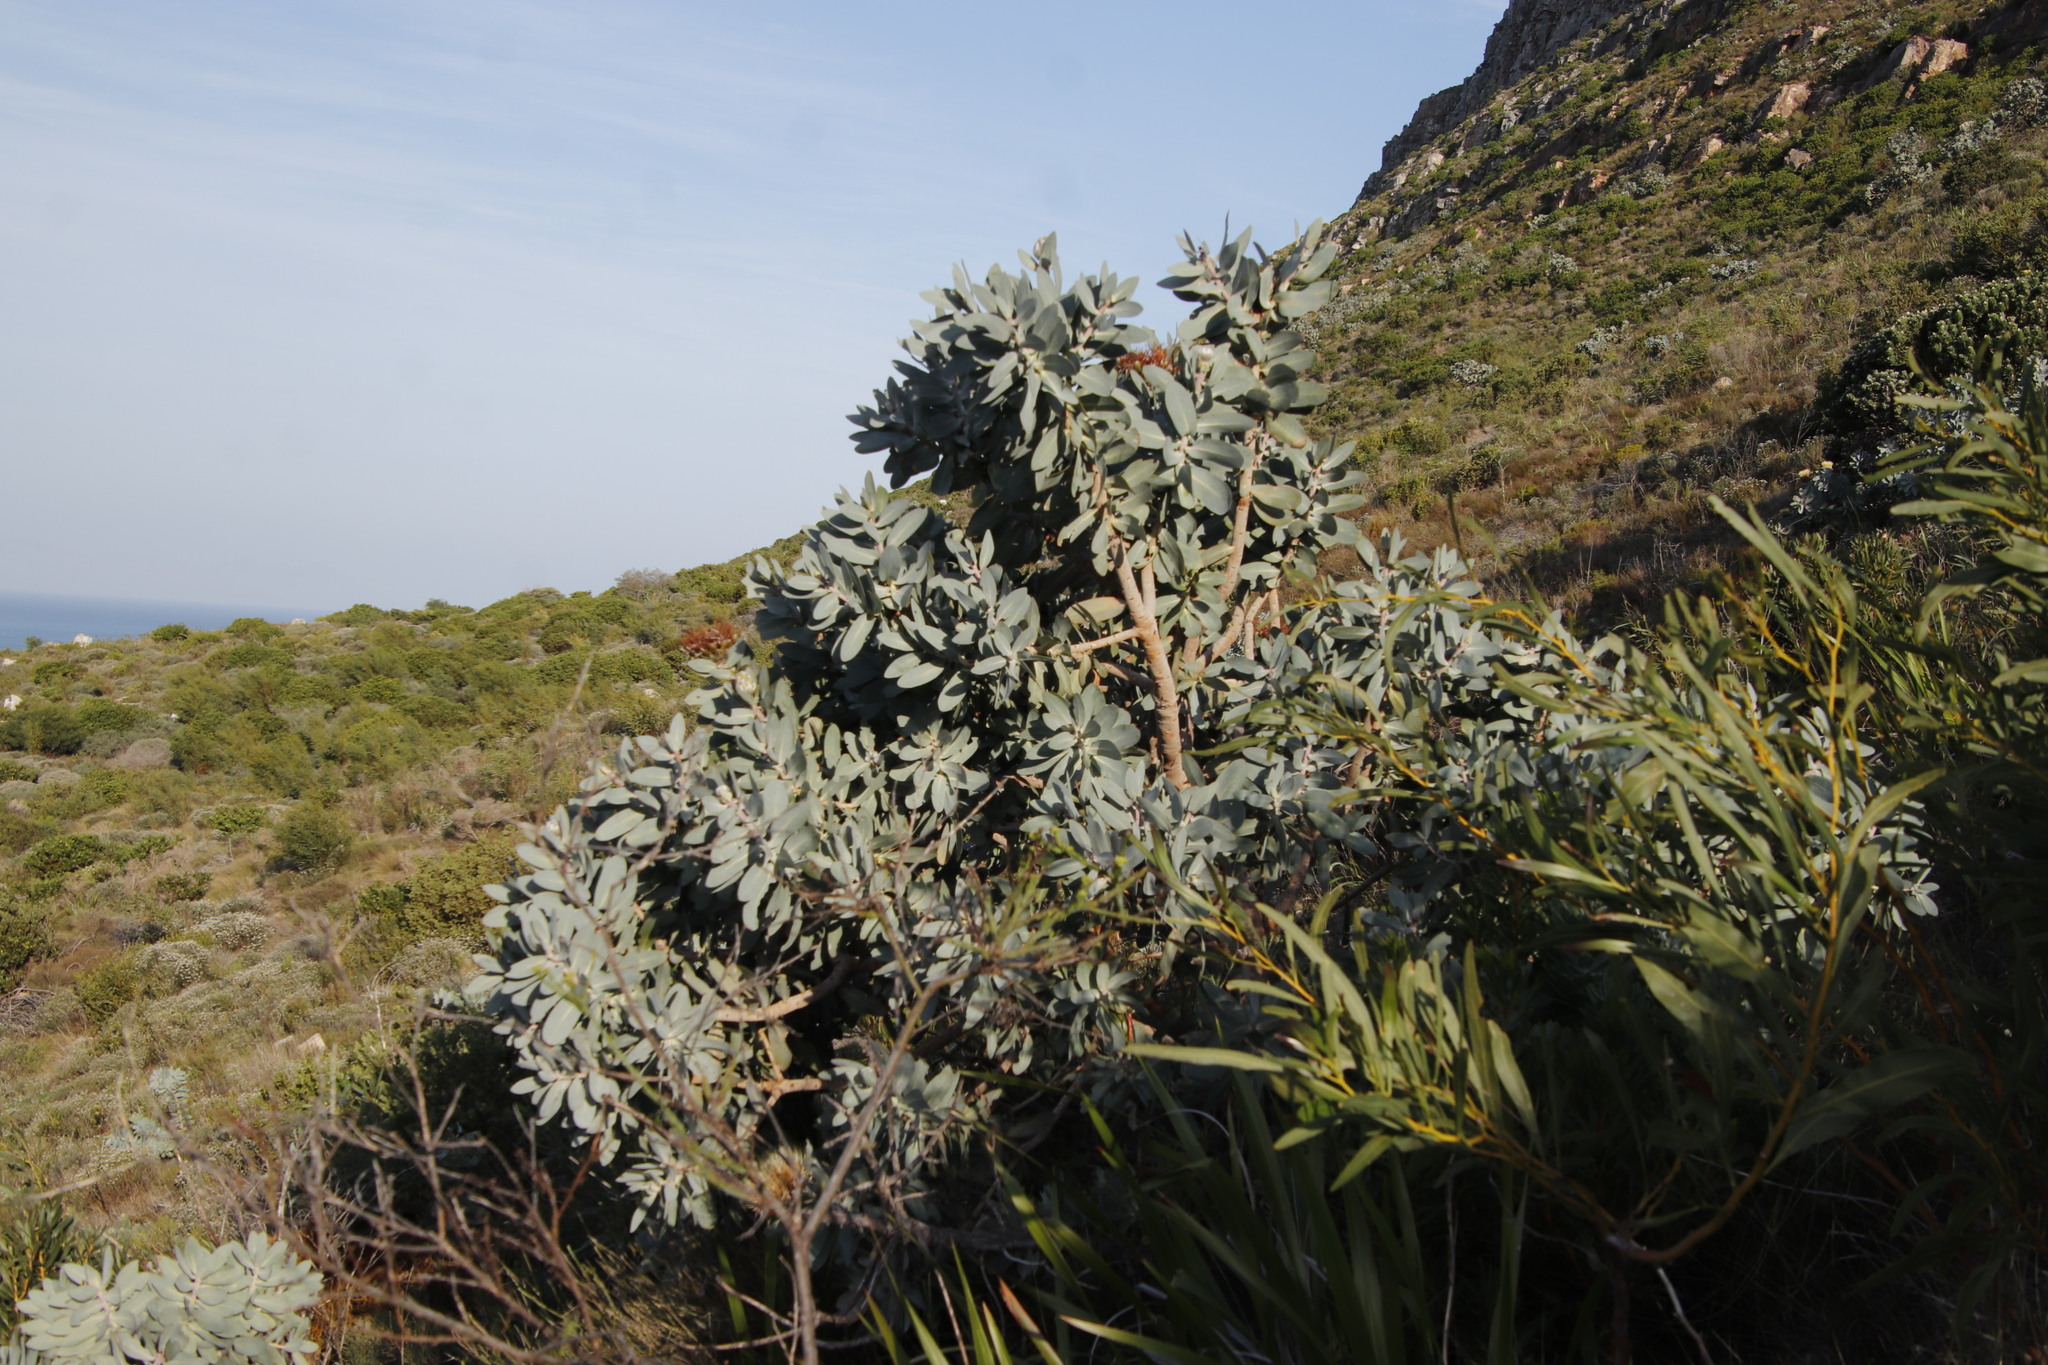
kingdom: Plantae
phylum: Tracheophyta
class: Magnoliopsida
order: Proteales
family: Proteaceae
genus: Protea
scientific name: Protea nitida
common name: Tree protea
